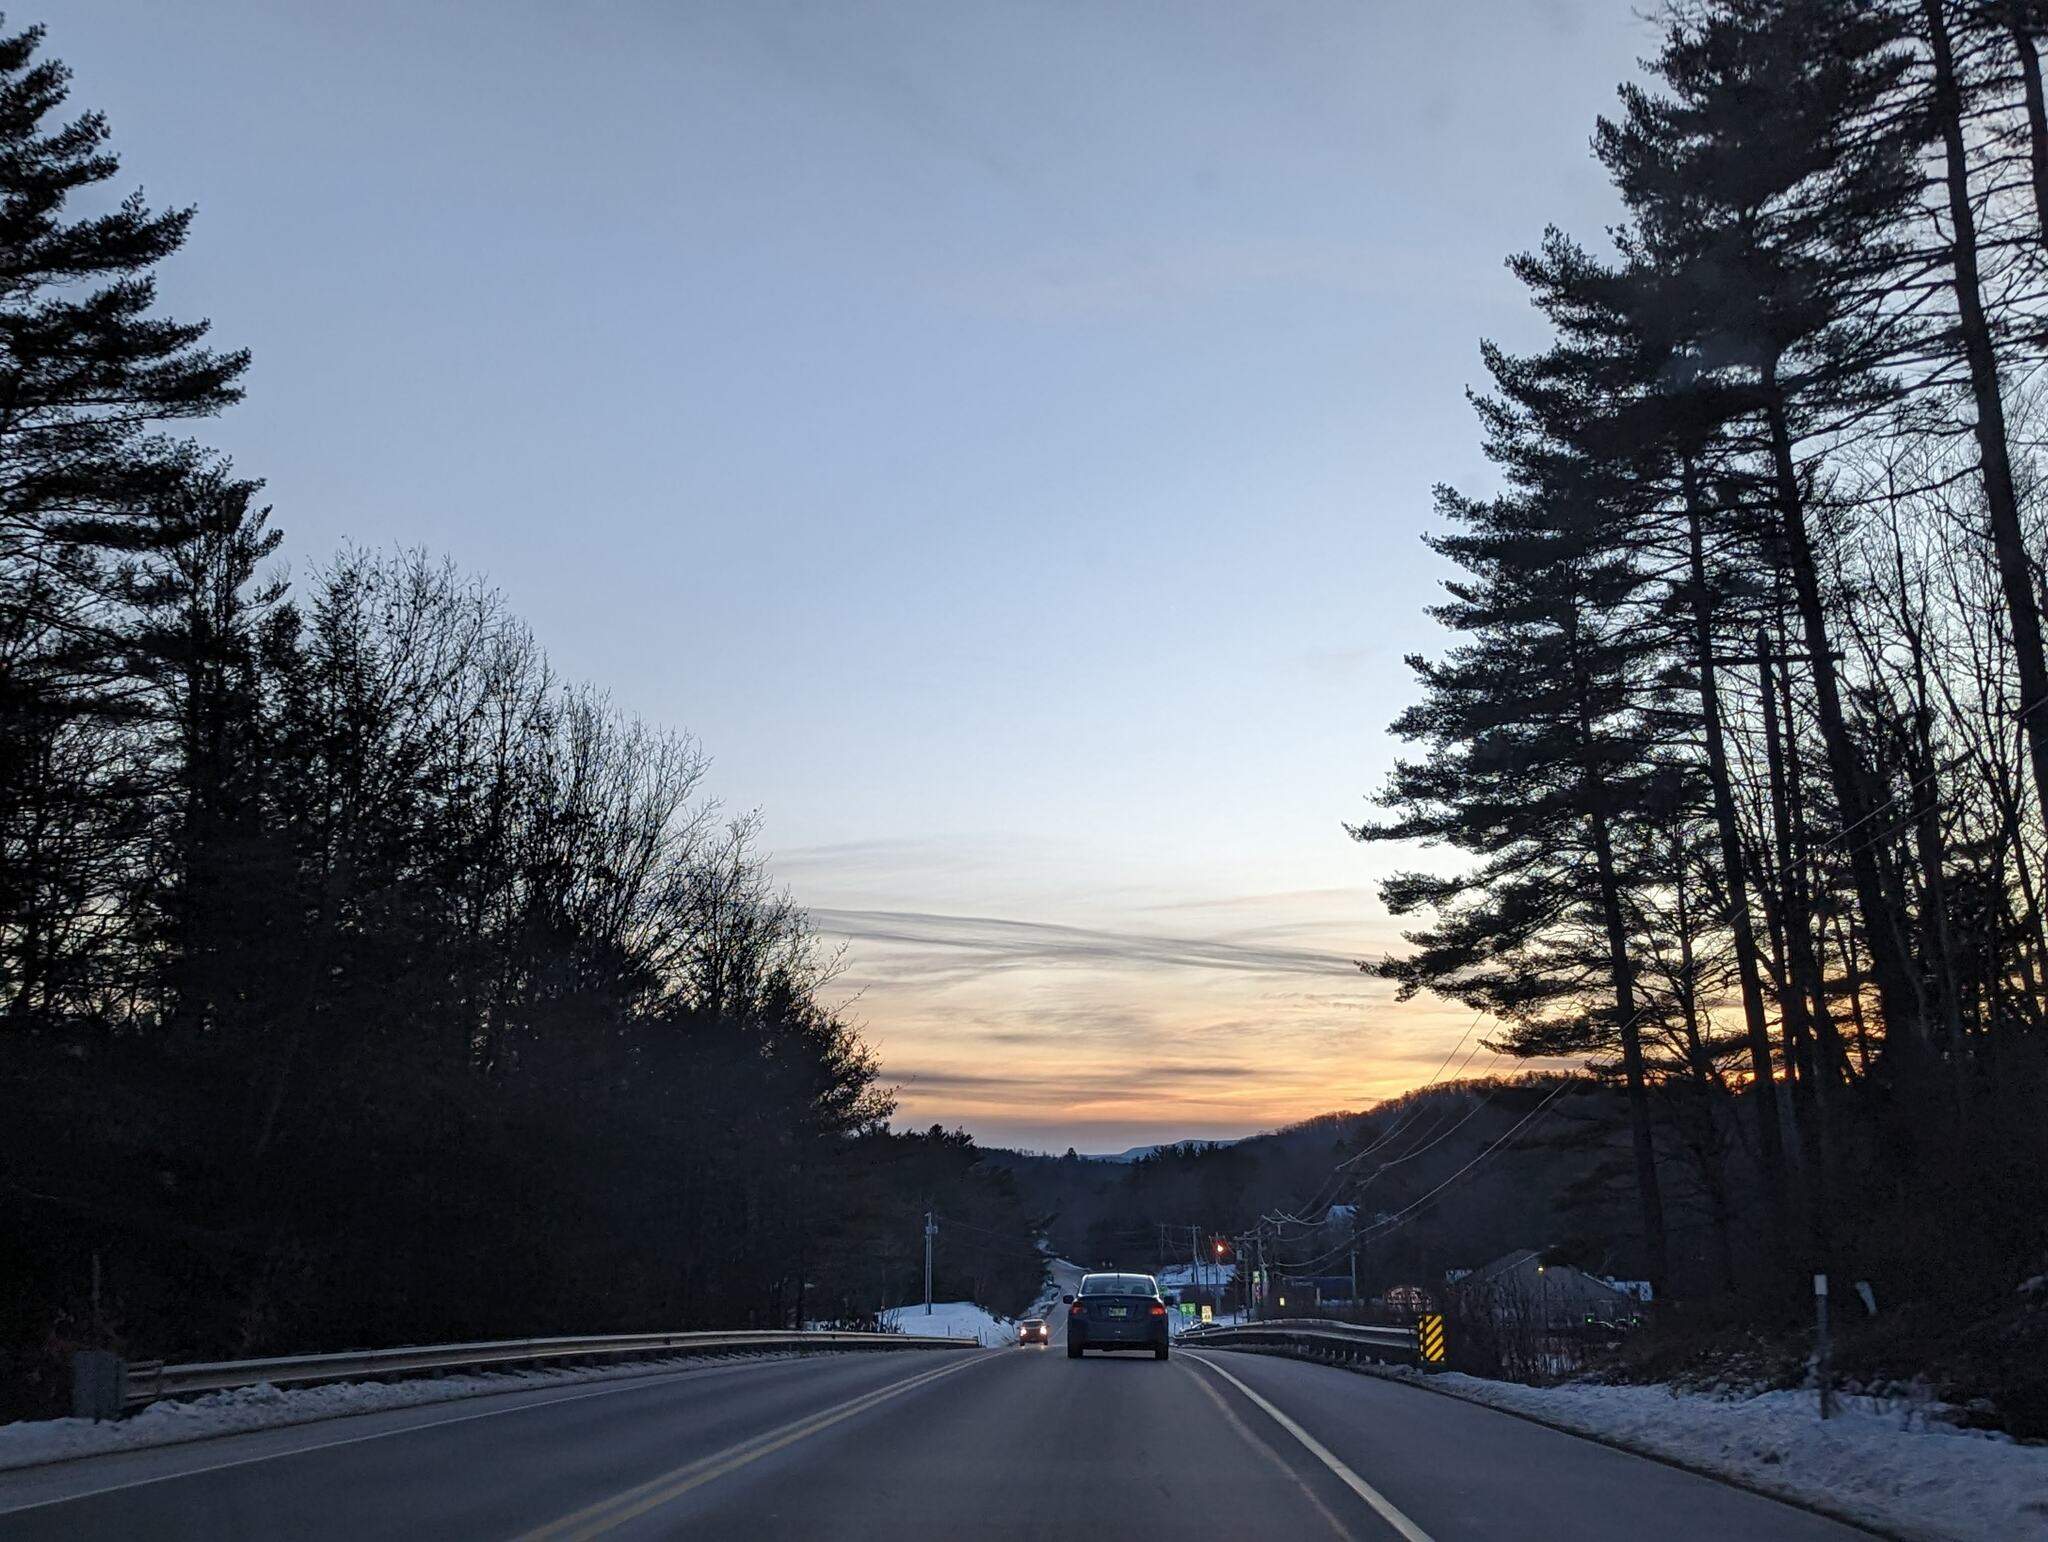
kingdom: Plantae
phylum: Tracheophyta
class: Pinopsida
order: Pinales
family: Pinaceae
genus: Pinus
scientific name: Pinus strobus
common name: Weymouth pine
